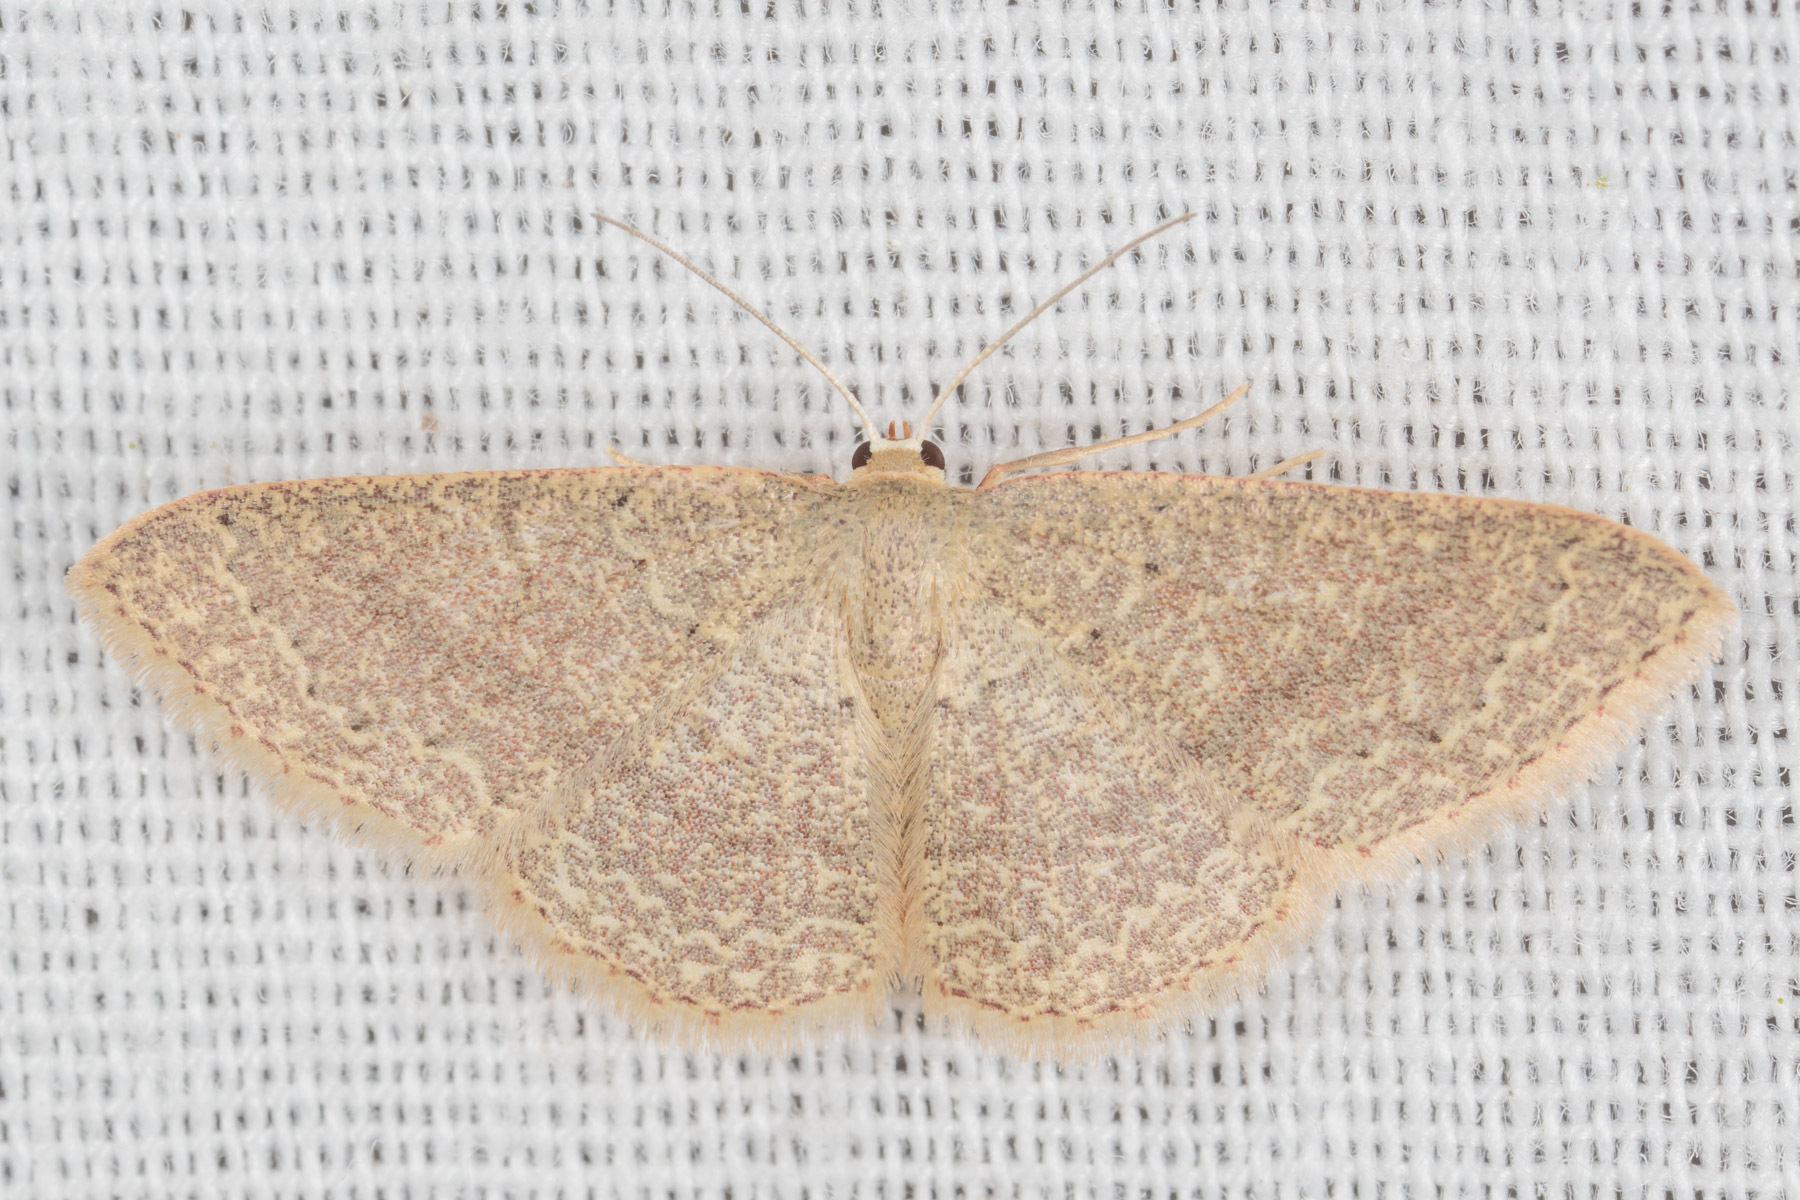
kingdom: Animalia
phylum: Arthropoda
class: Insecta
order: Lepidoptera
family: Geometridae
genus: Pleuroprucha
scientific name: Pleuroprucha insulsaria
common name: Common tan wave
